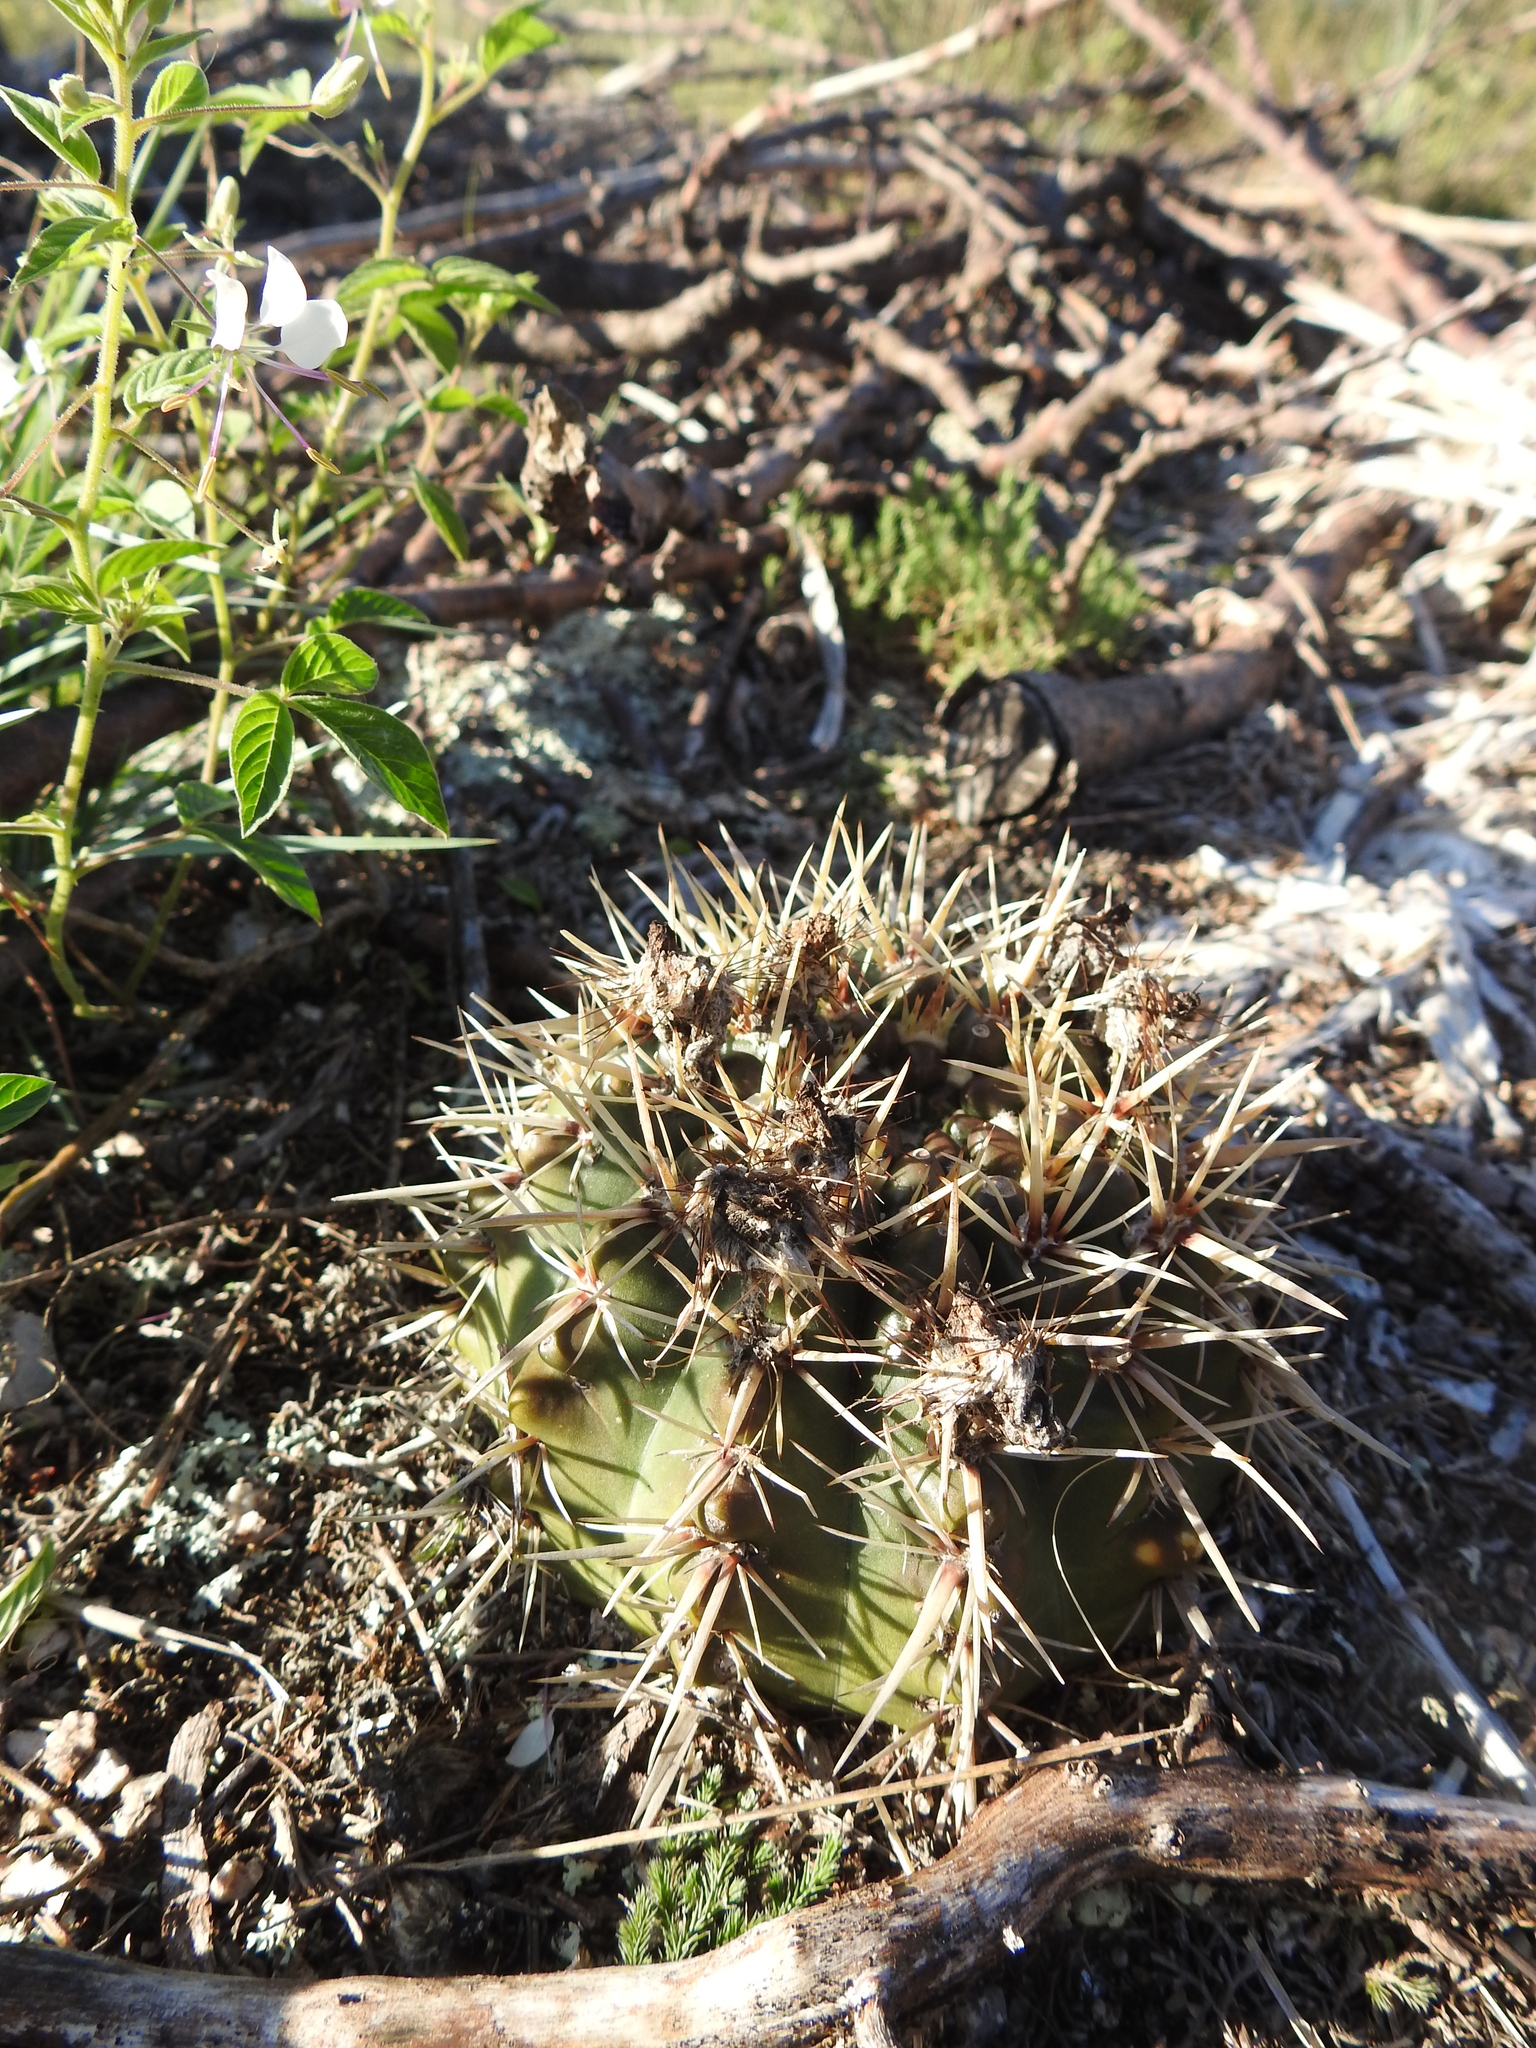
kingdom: Plantae
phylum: Tracheophyta
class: Magnoliopsida
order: Caryophyllales
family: Cactaceae
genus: Parodia
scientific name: Parodia mammulosa
